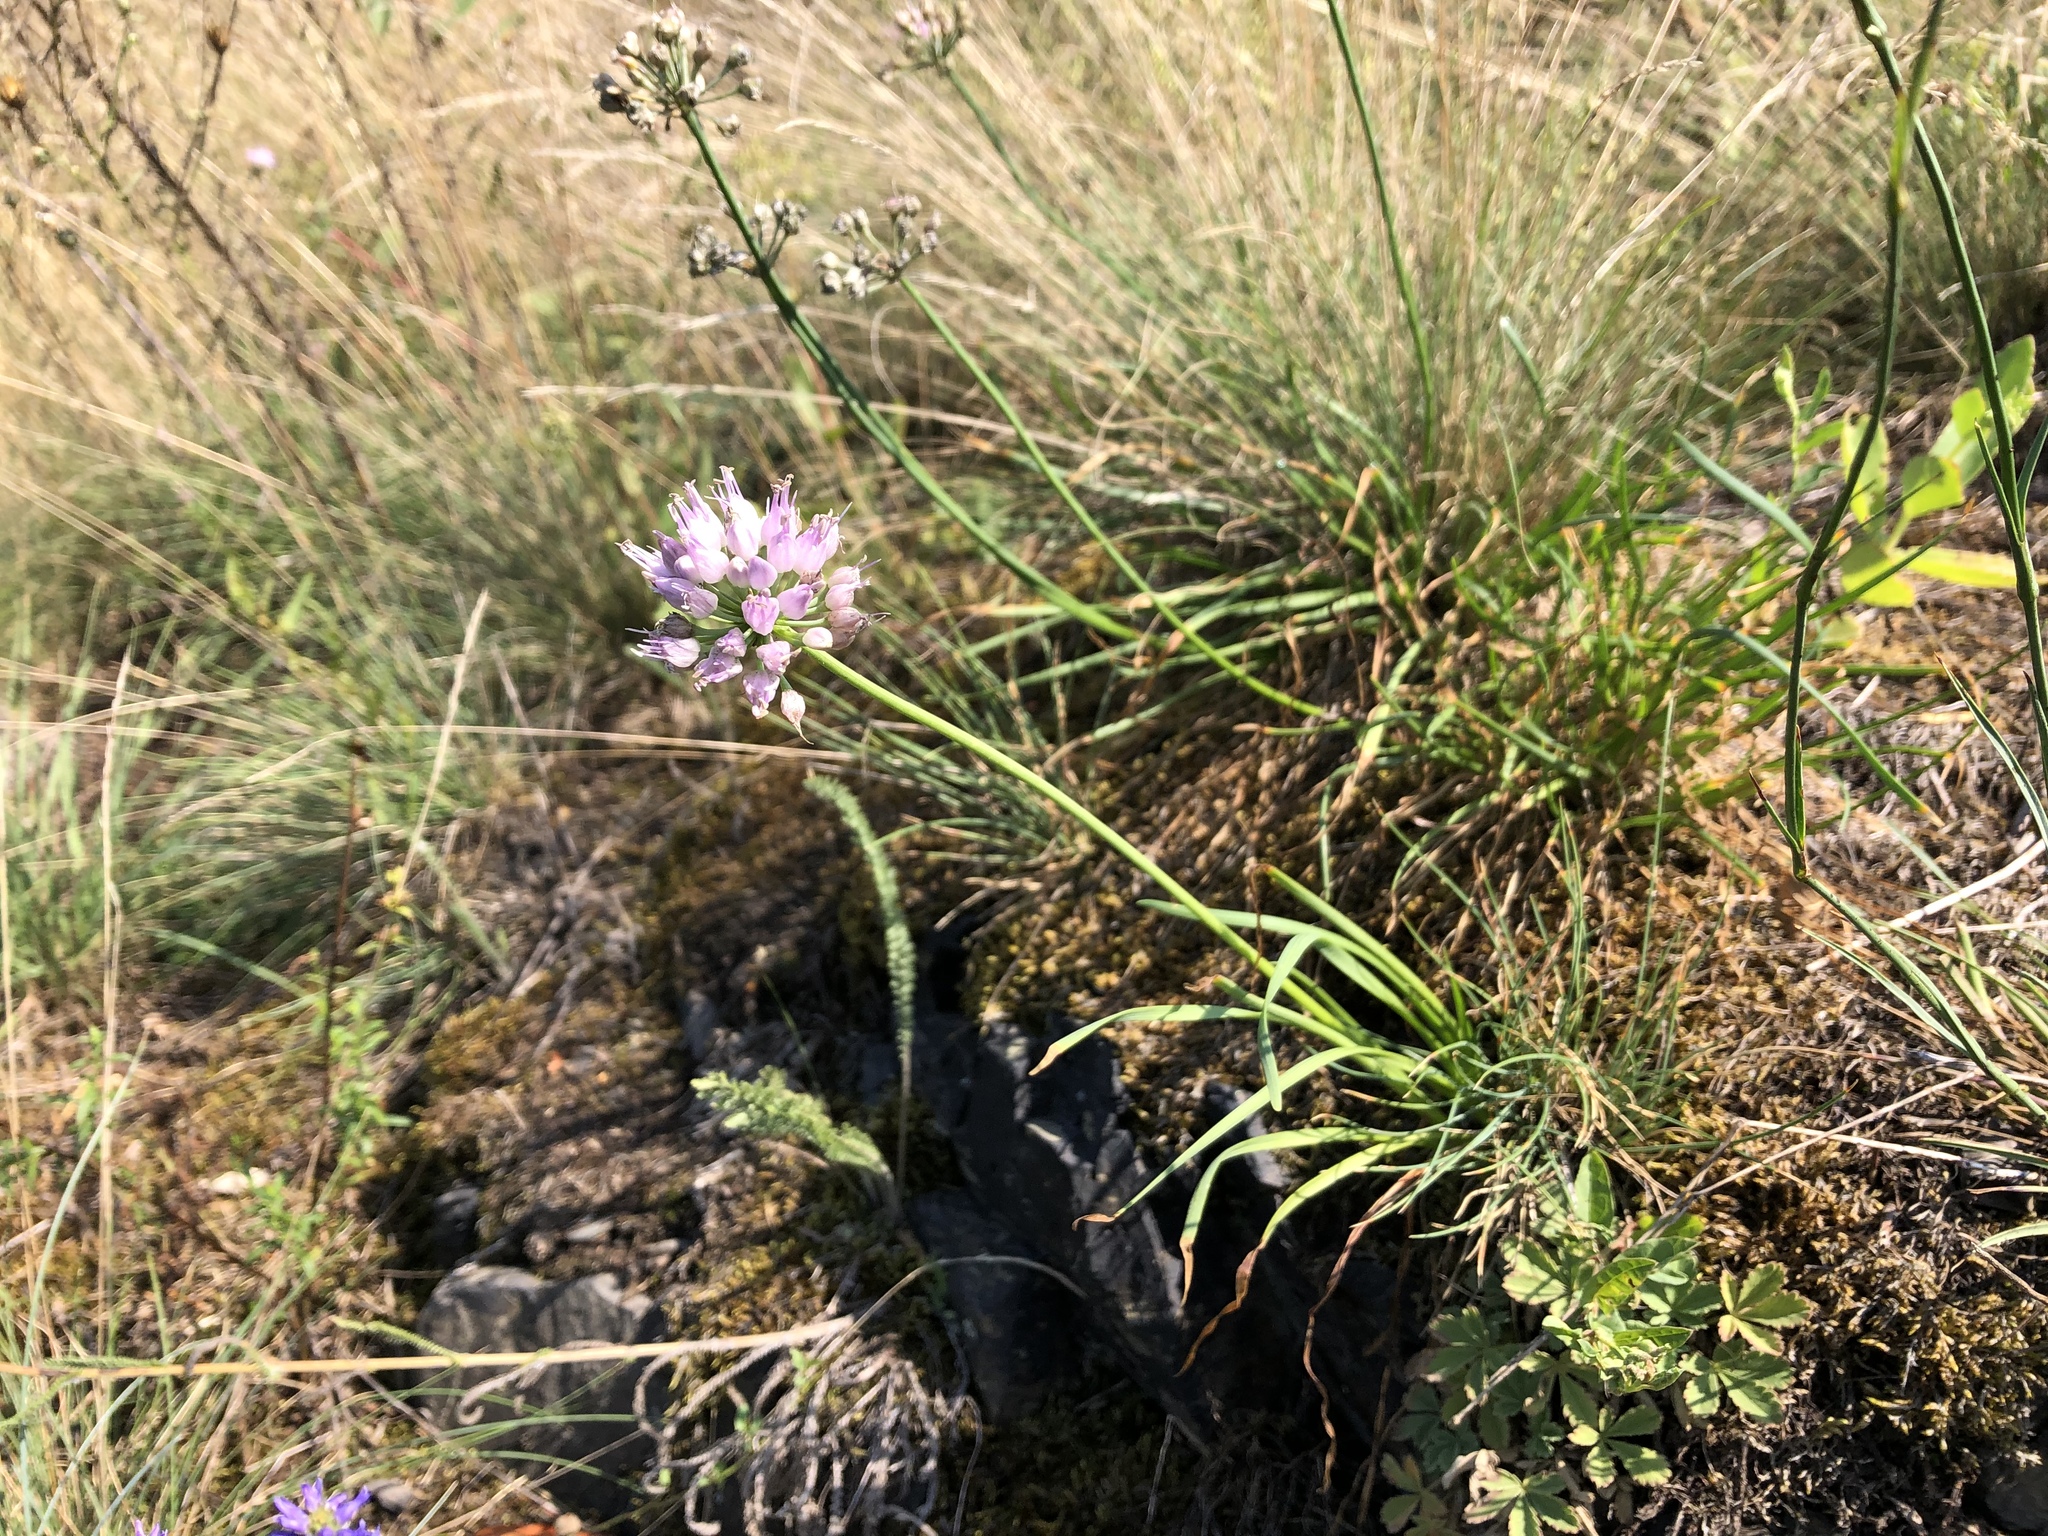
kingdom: Plantae
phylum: Tracheophyta
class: Liliopsida
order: Asparagales
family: Amaryllidaceae
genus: Allium
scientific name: Allium lusitanicum
